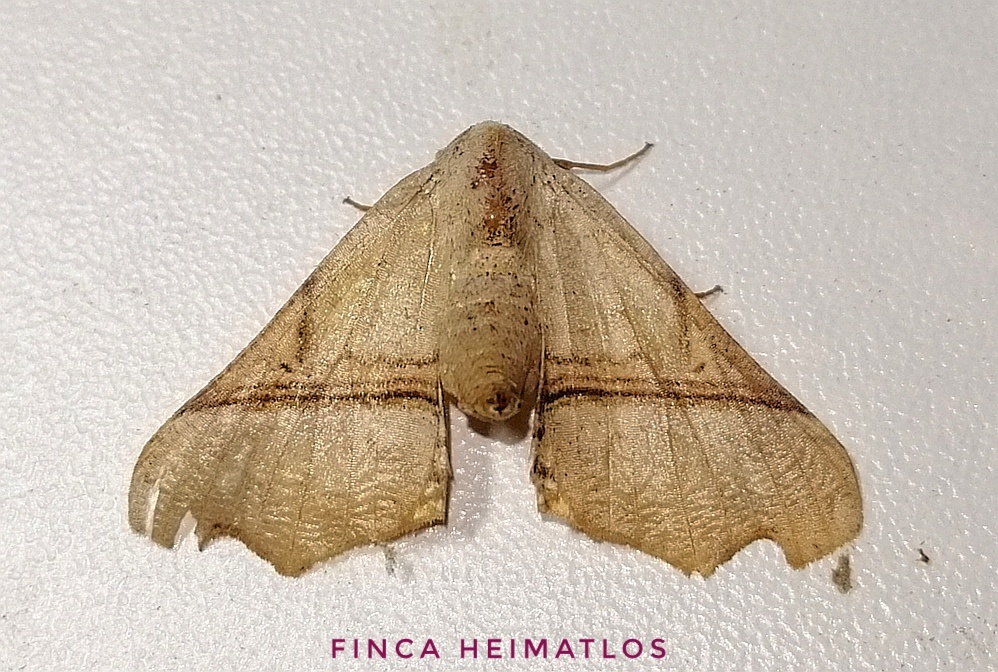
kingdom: Animalia
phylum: Arthropoda
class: Insecta
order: Lepidoptera
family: Geometridae
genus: Pero
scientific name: Pero
